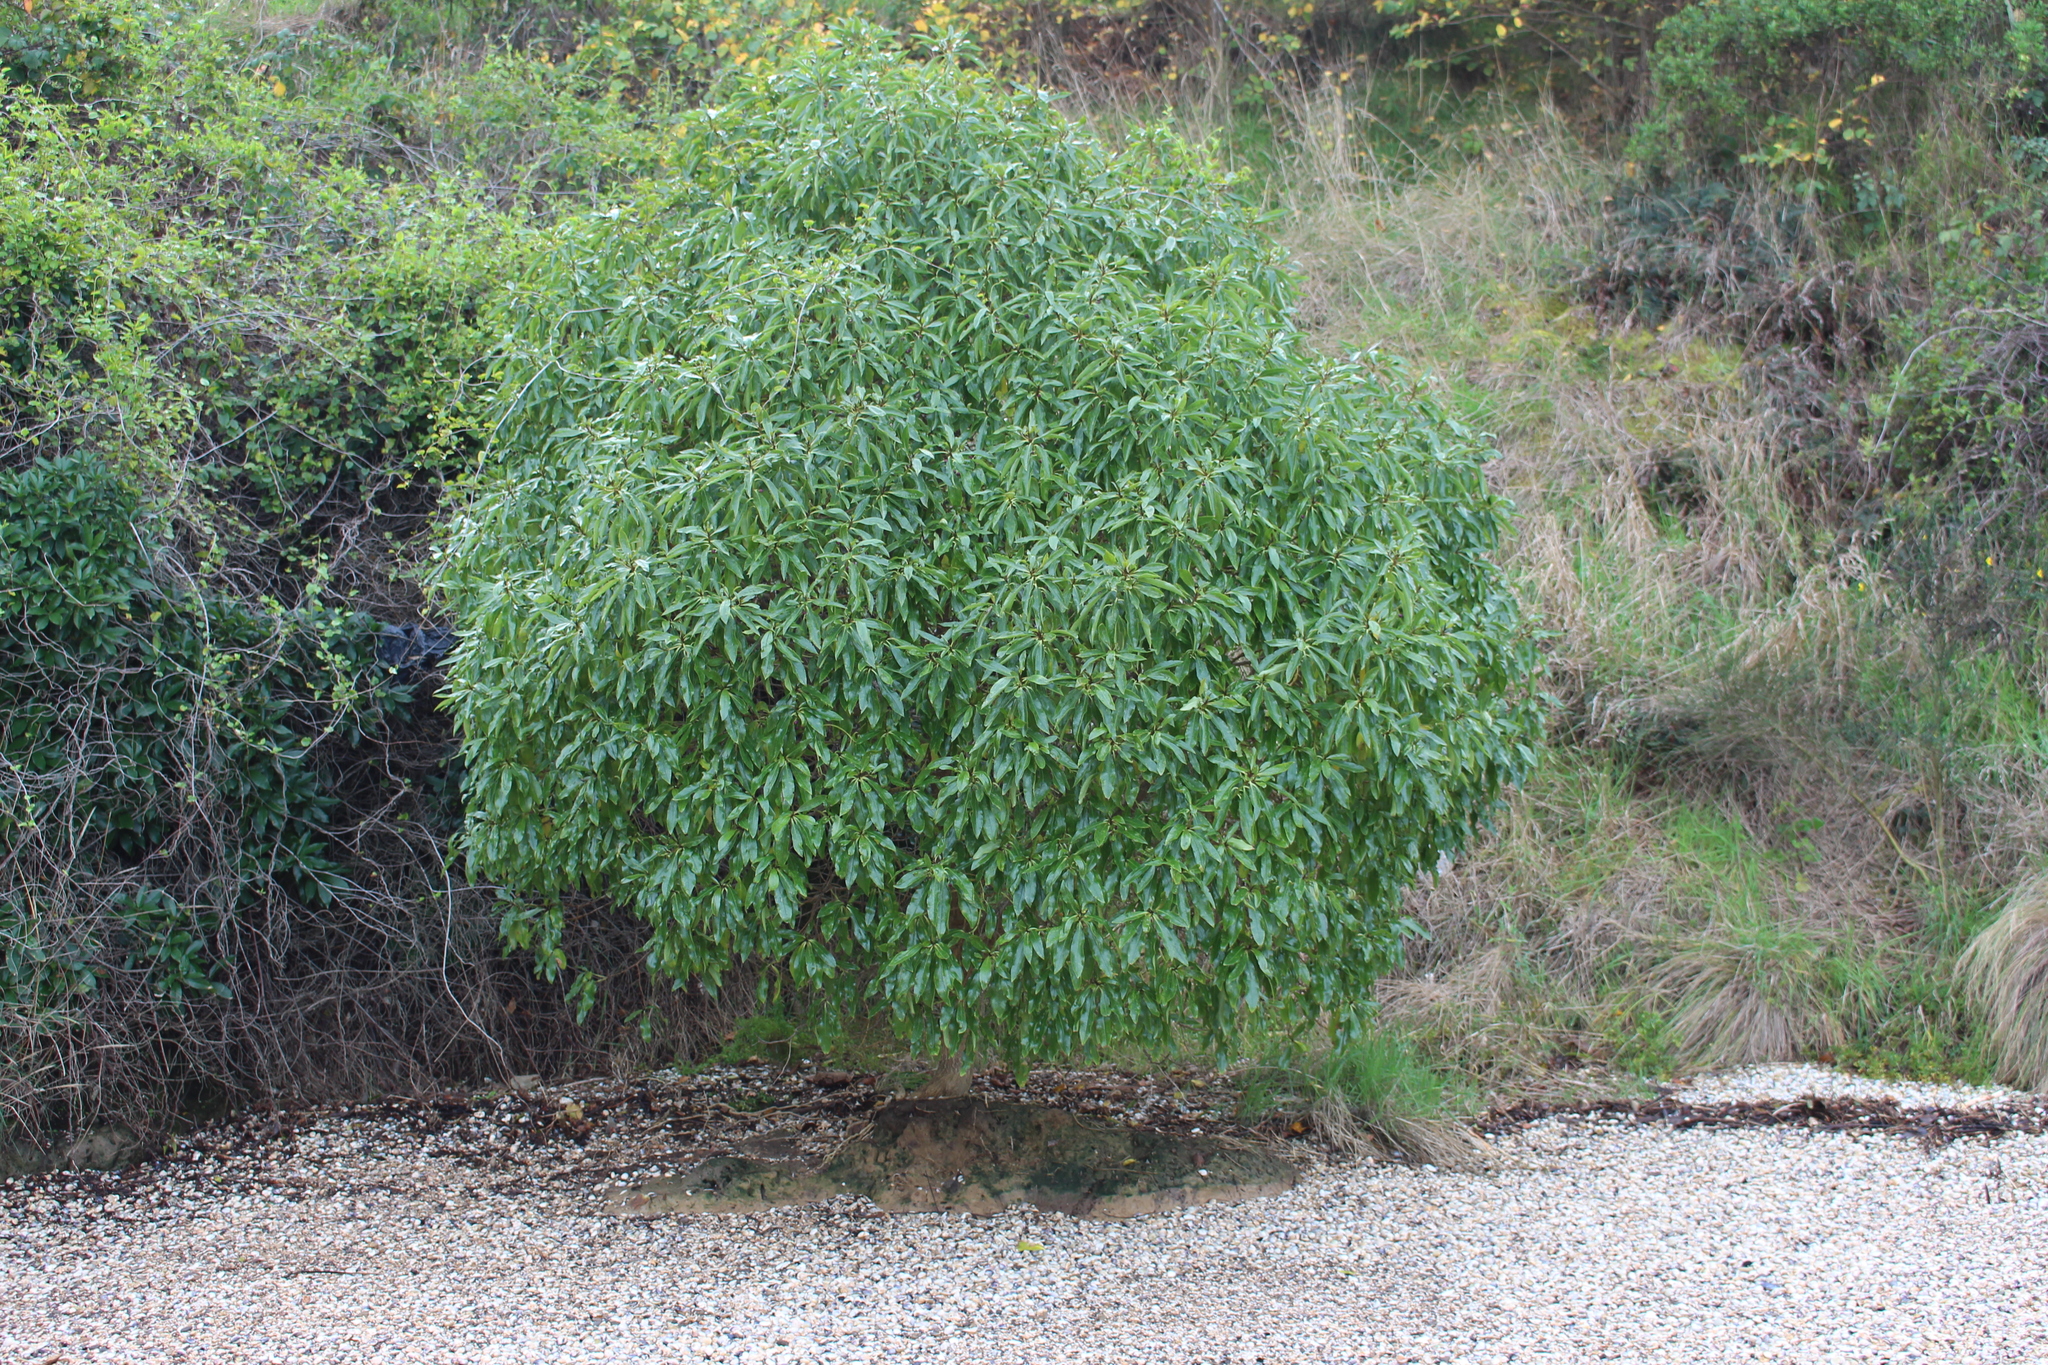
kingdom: Plantae
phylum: Tracheophyta
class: Magnoliopsida
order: Lamiales
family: Scrophulariaceae
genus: Myoporum
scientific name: Myoporum laetum
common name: Ngaio tree
